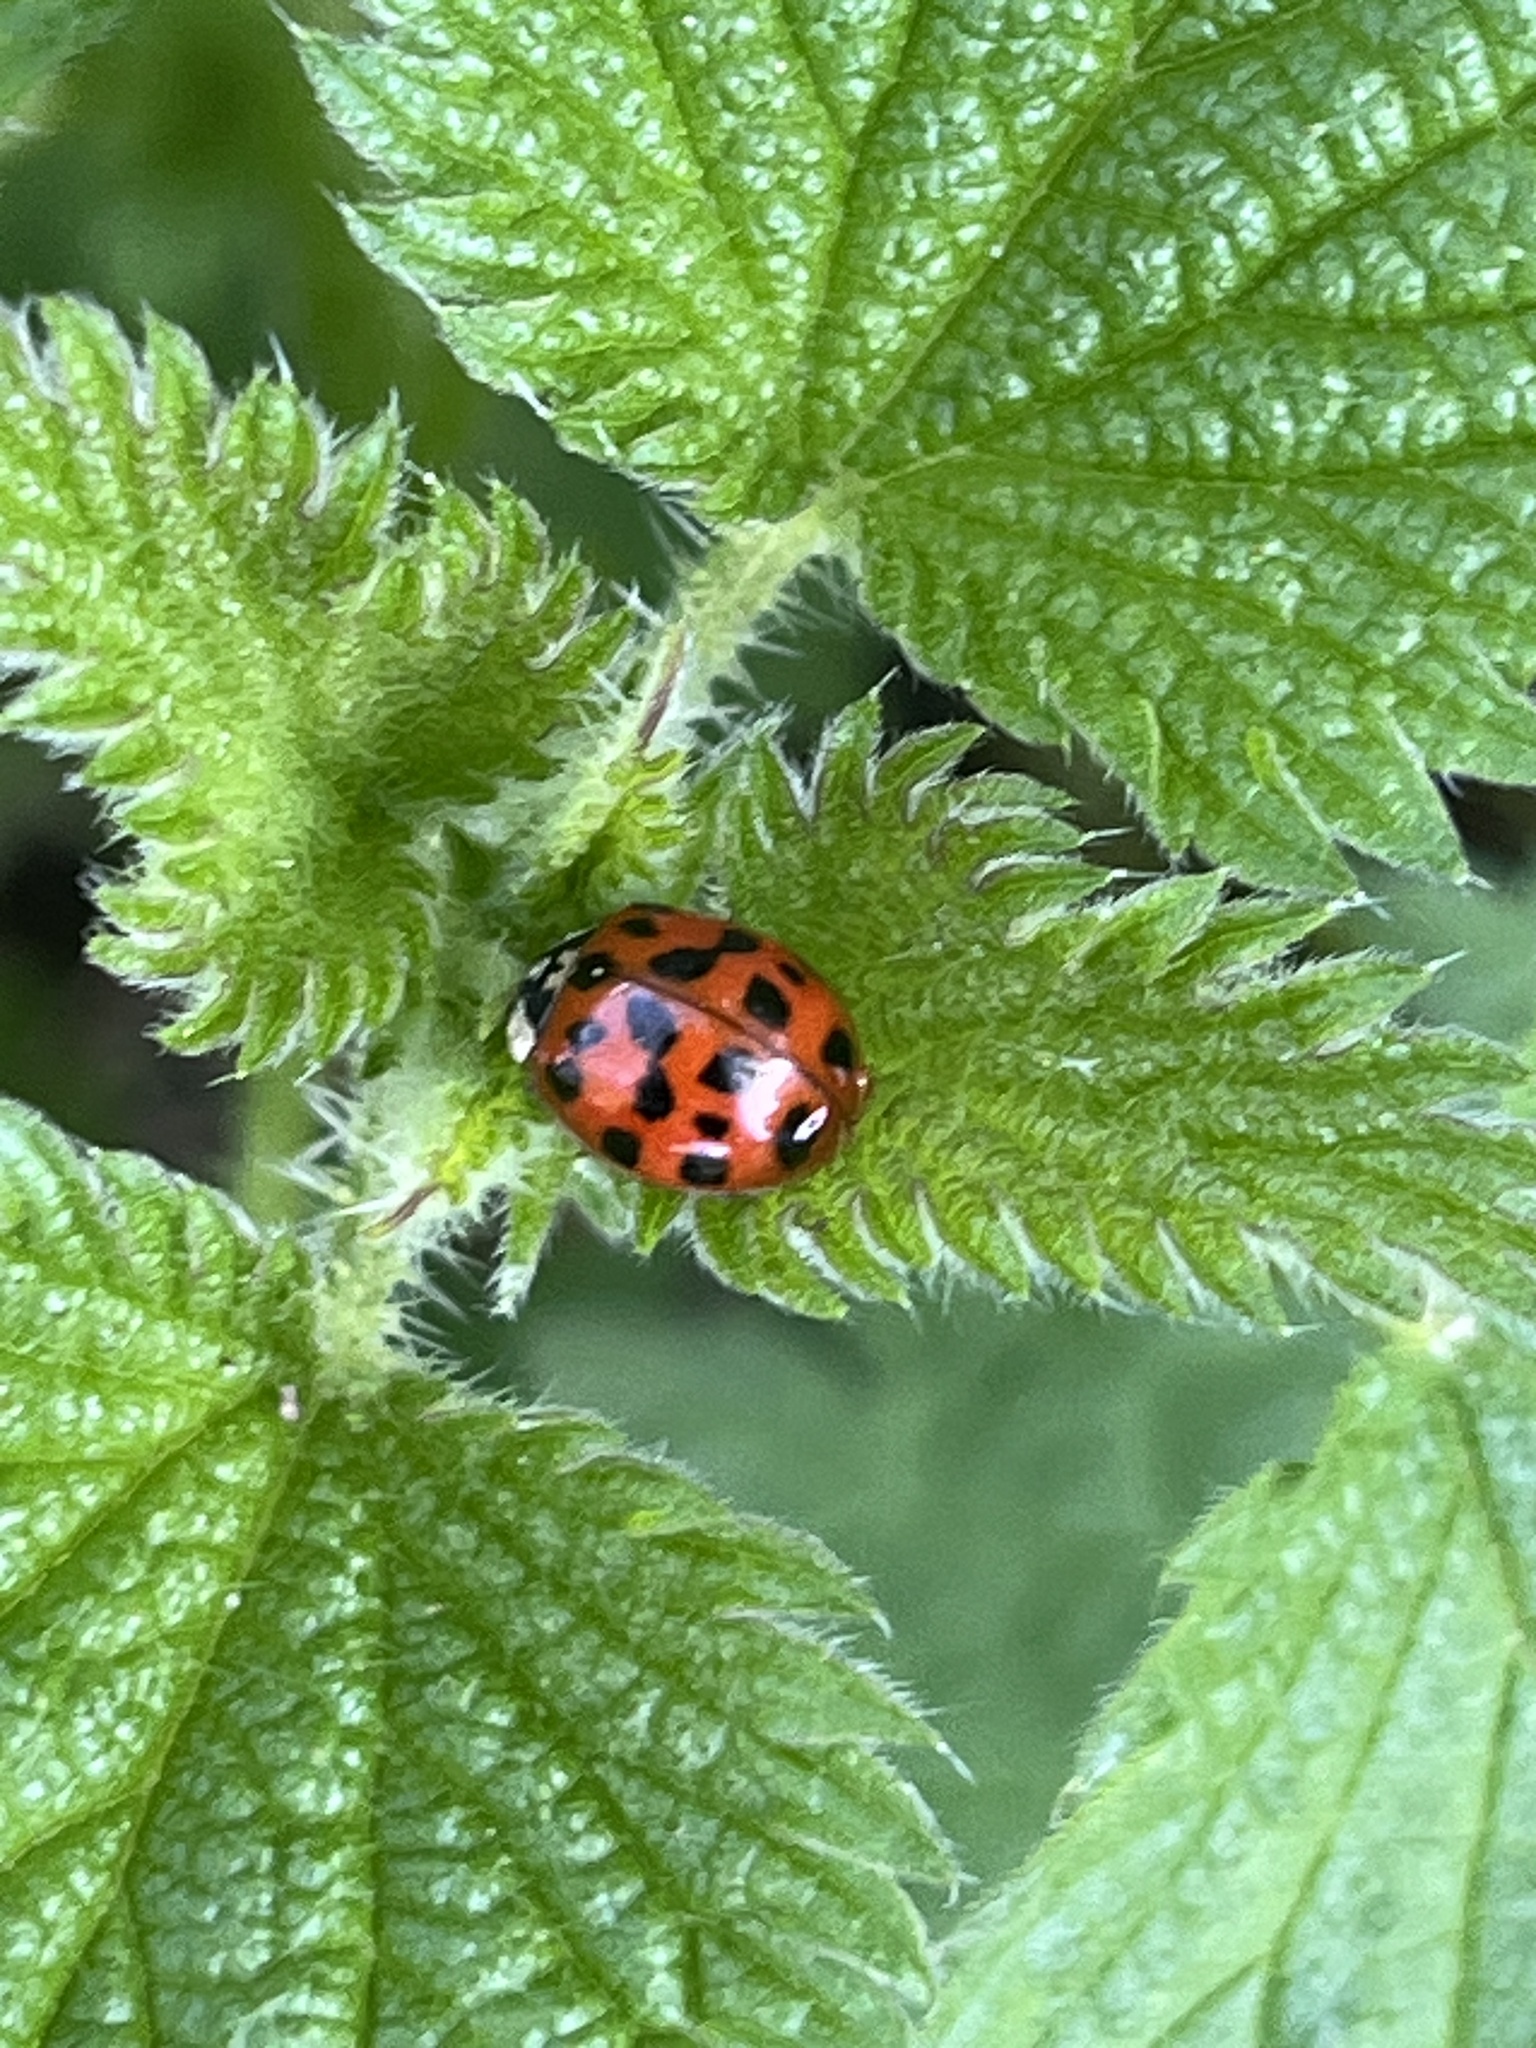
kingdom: Animalia
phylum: Arthropoda
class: Insecta
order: Coleoptera
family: Coccinellidae
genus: Harmonia
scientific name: Harmonia axyridis
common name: Harlequin ladybird
